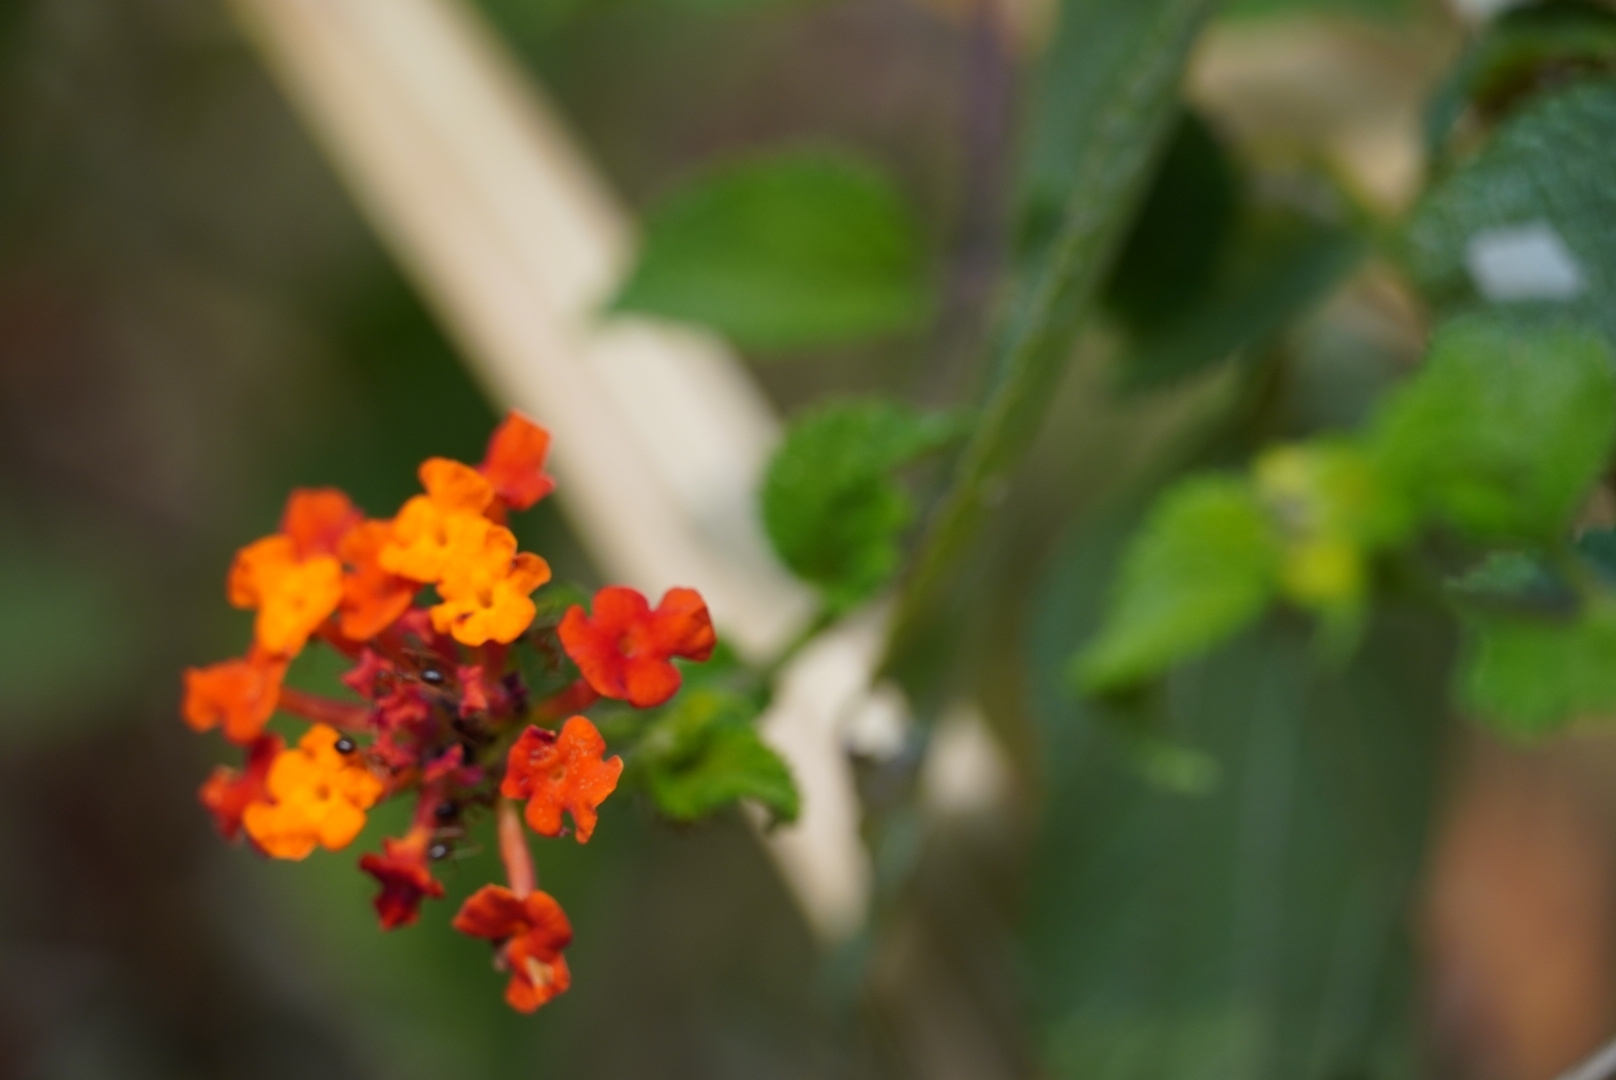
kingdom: Plantae
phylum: Tracheophyta
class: Magnoliopsida
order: Lamiales
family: Verbenaceae
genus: Lantana
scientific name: Lantana camara
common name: Lantana
